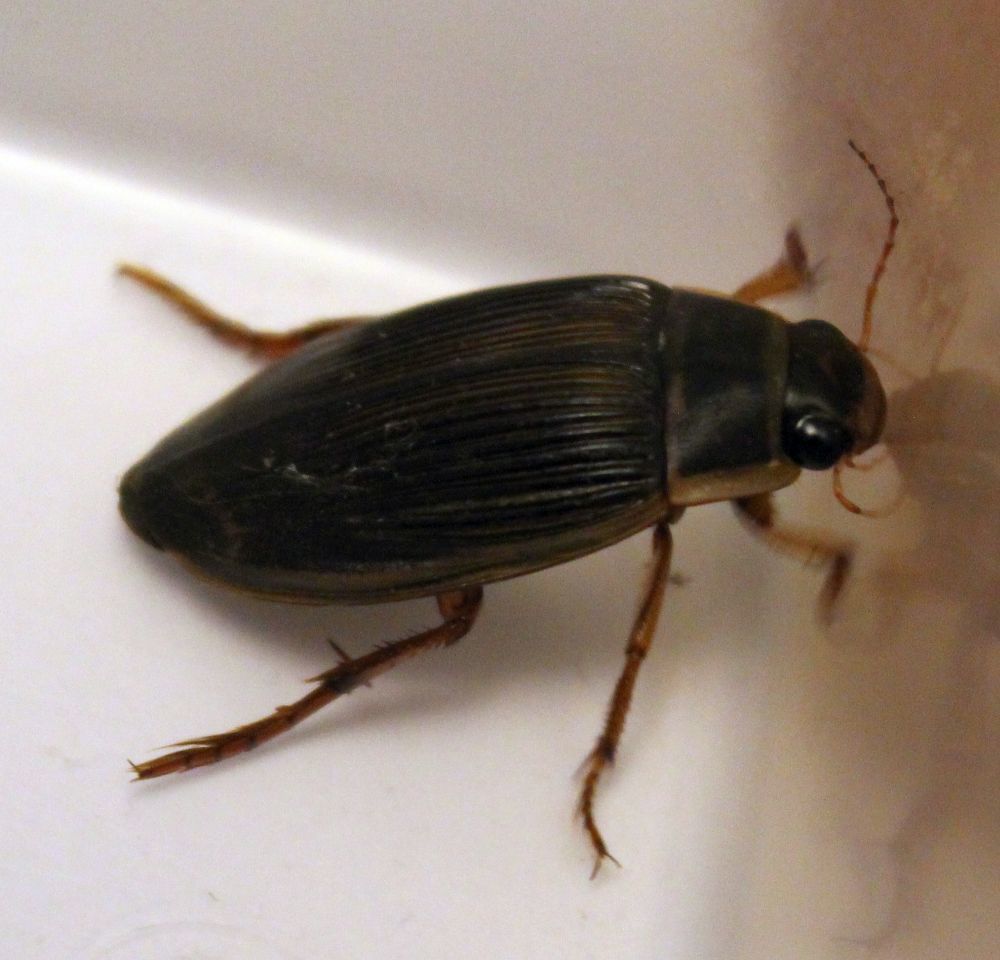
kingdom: Animalia
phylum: Arthropoda
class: Insecta
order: Coleoptera
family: Dytiscidae
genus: Dytiscus
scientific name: Dytiscus marginalis
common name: Great water beetle
